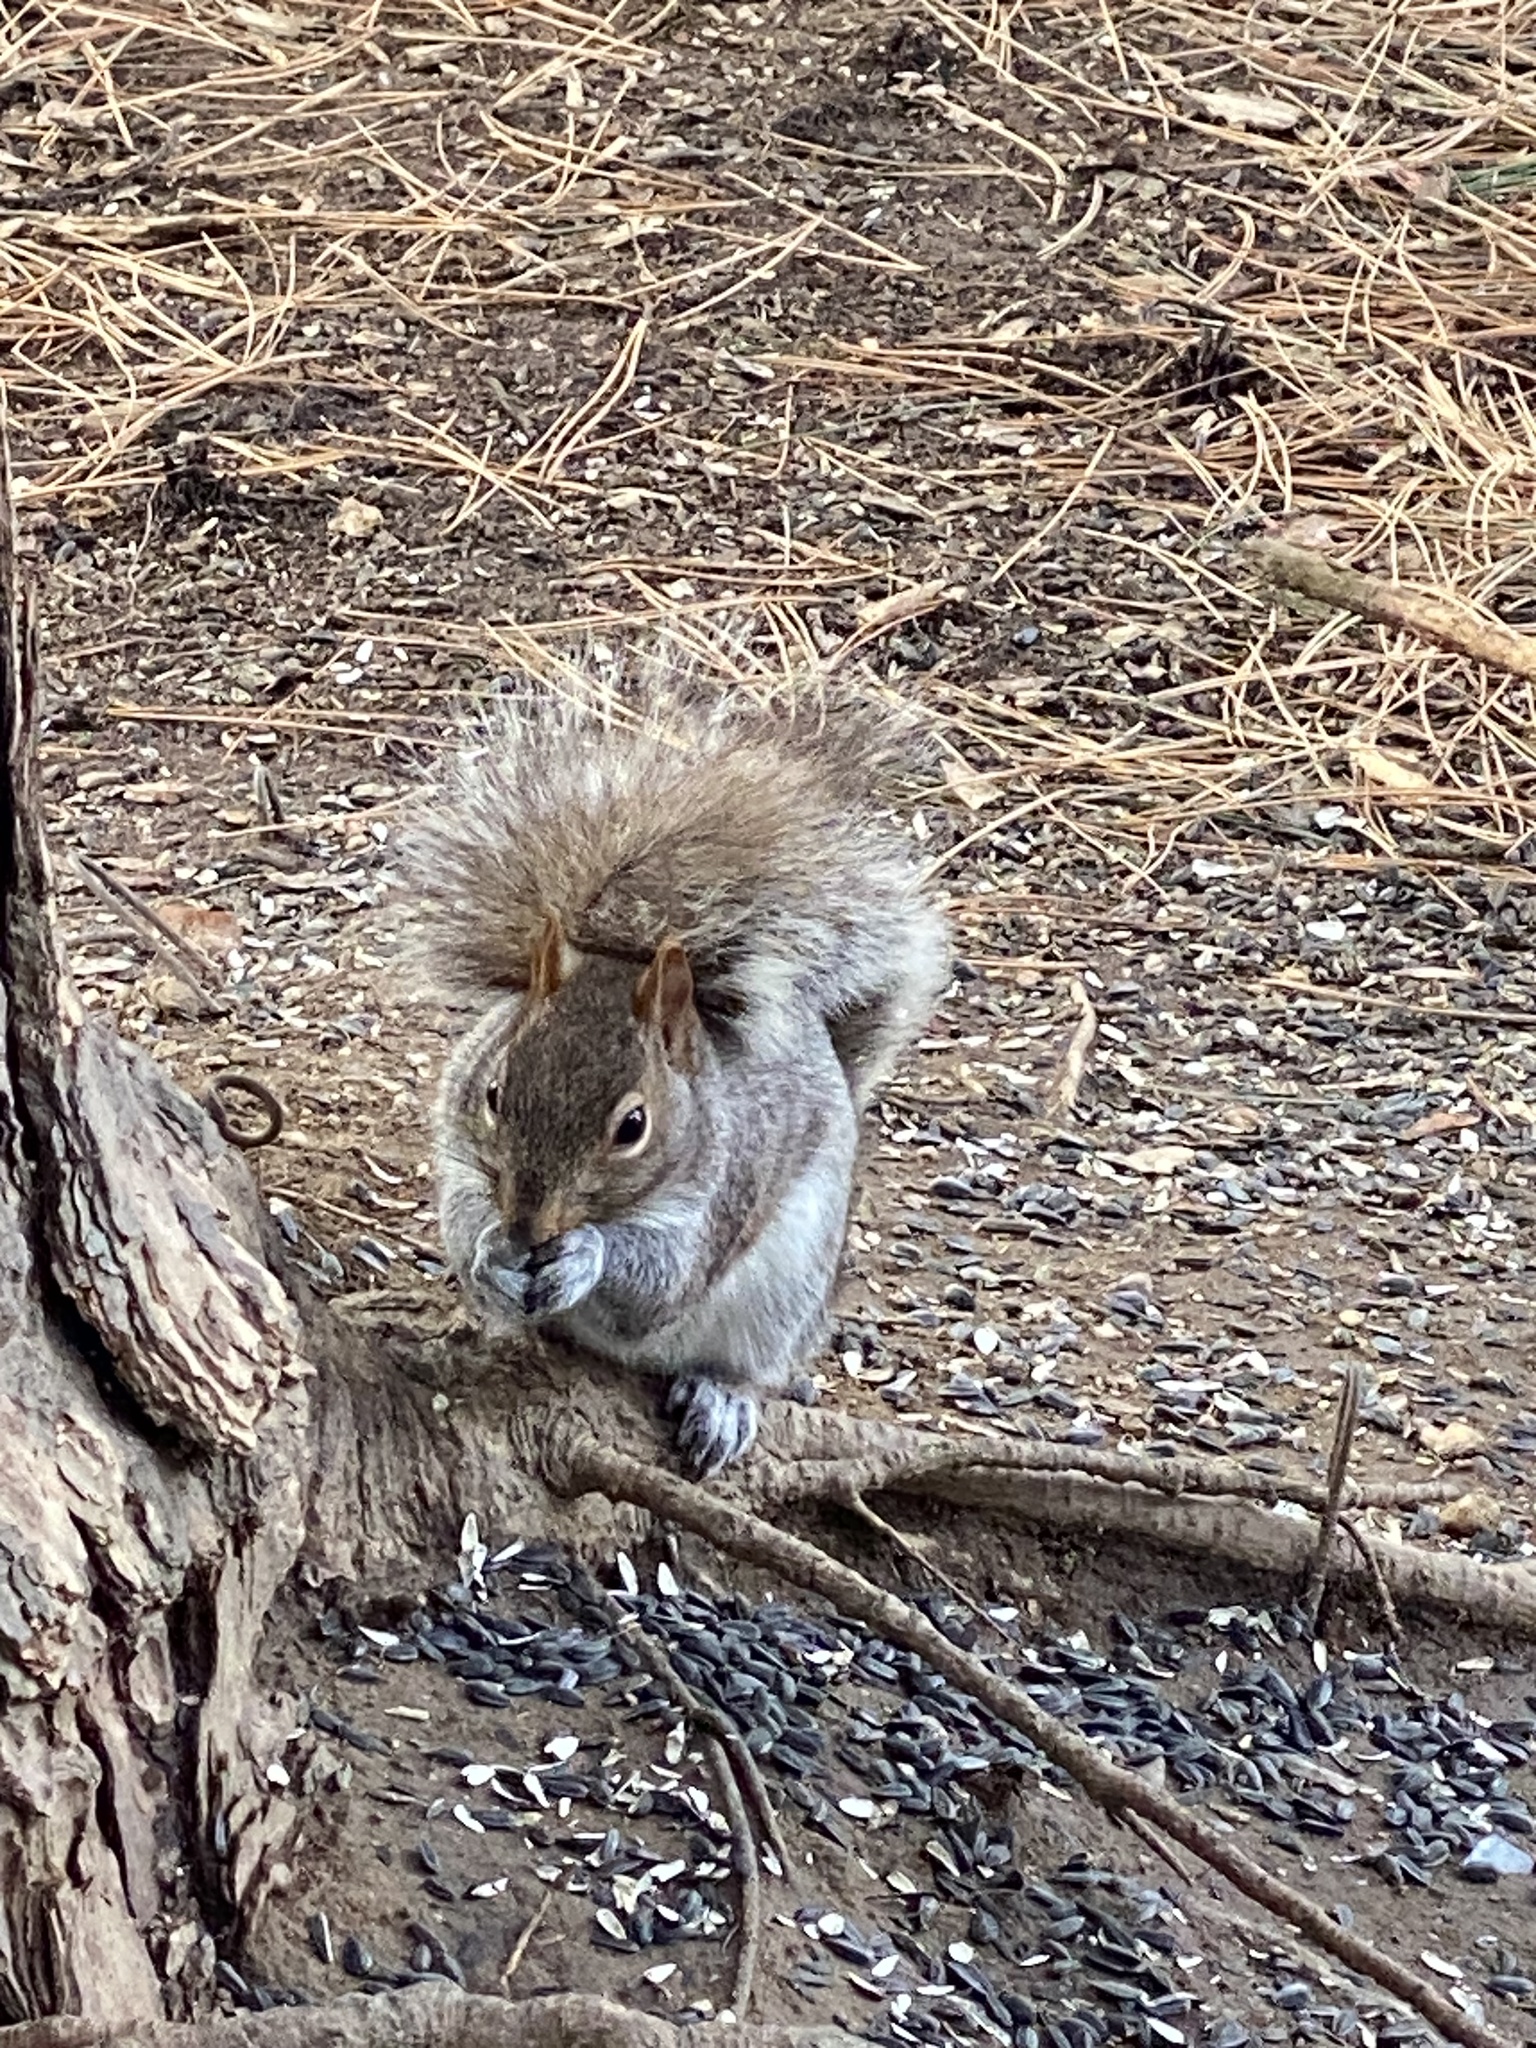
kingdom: Animalia
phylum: Chordata
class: Mammalia
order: Rodentia
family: Sciuridae
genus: Sciurus
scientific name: Sciurus carolinensis
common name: Eastern gray squirrel
